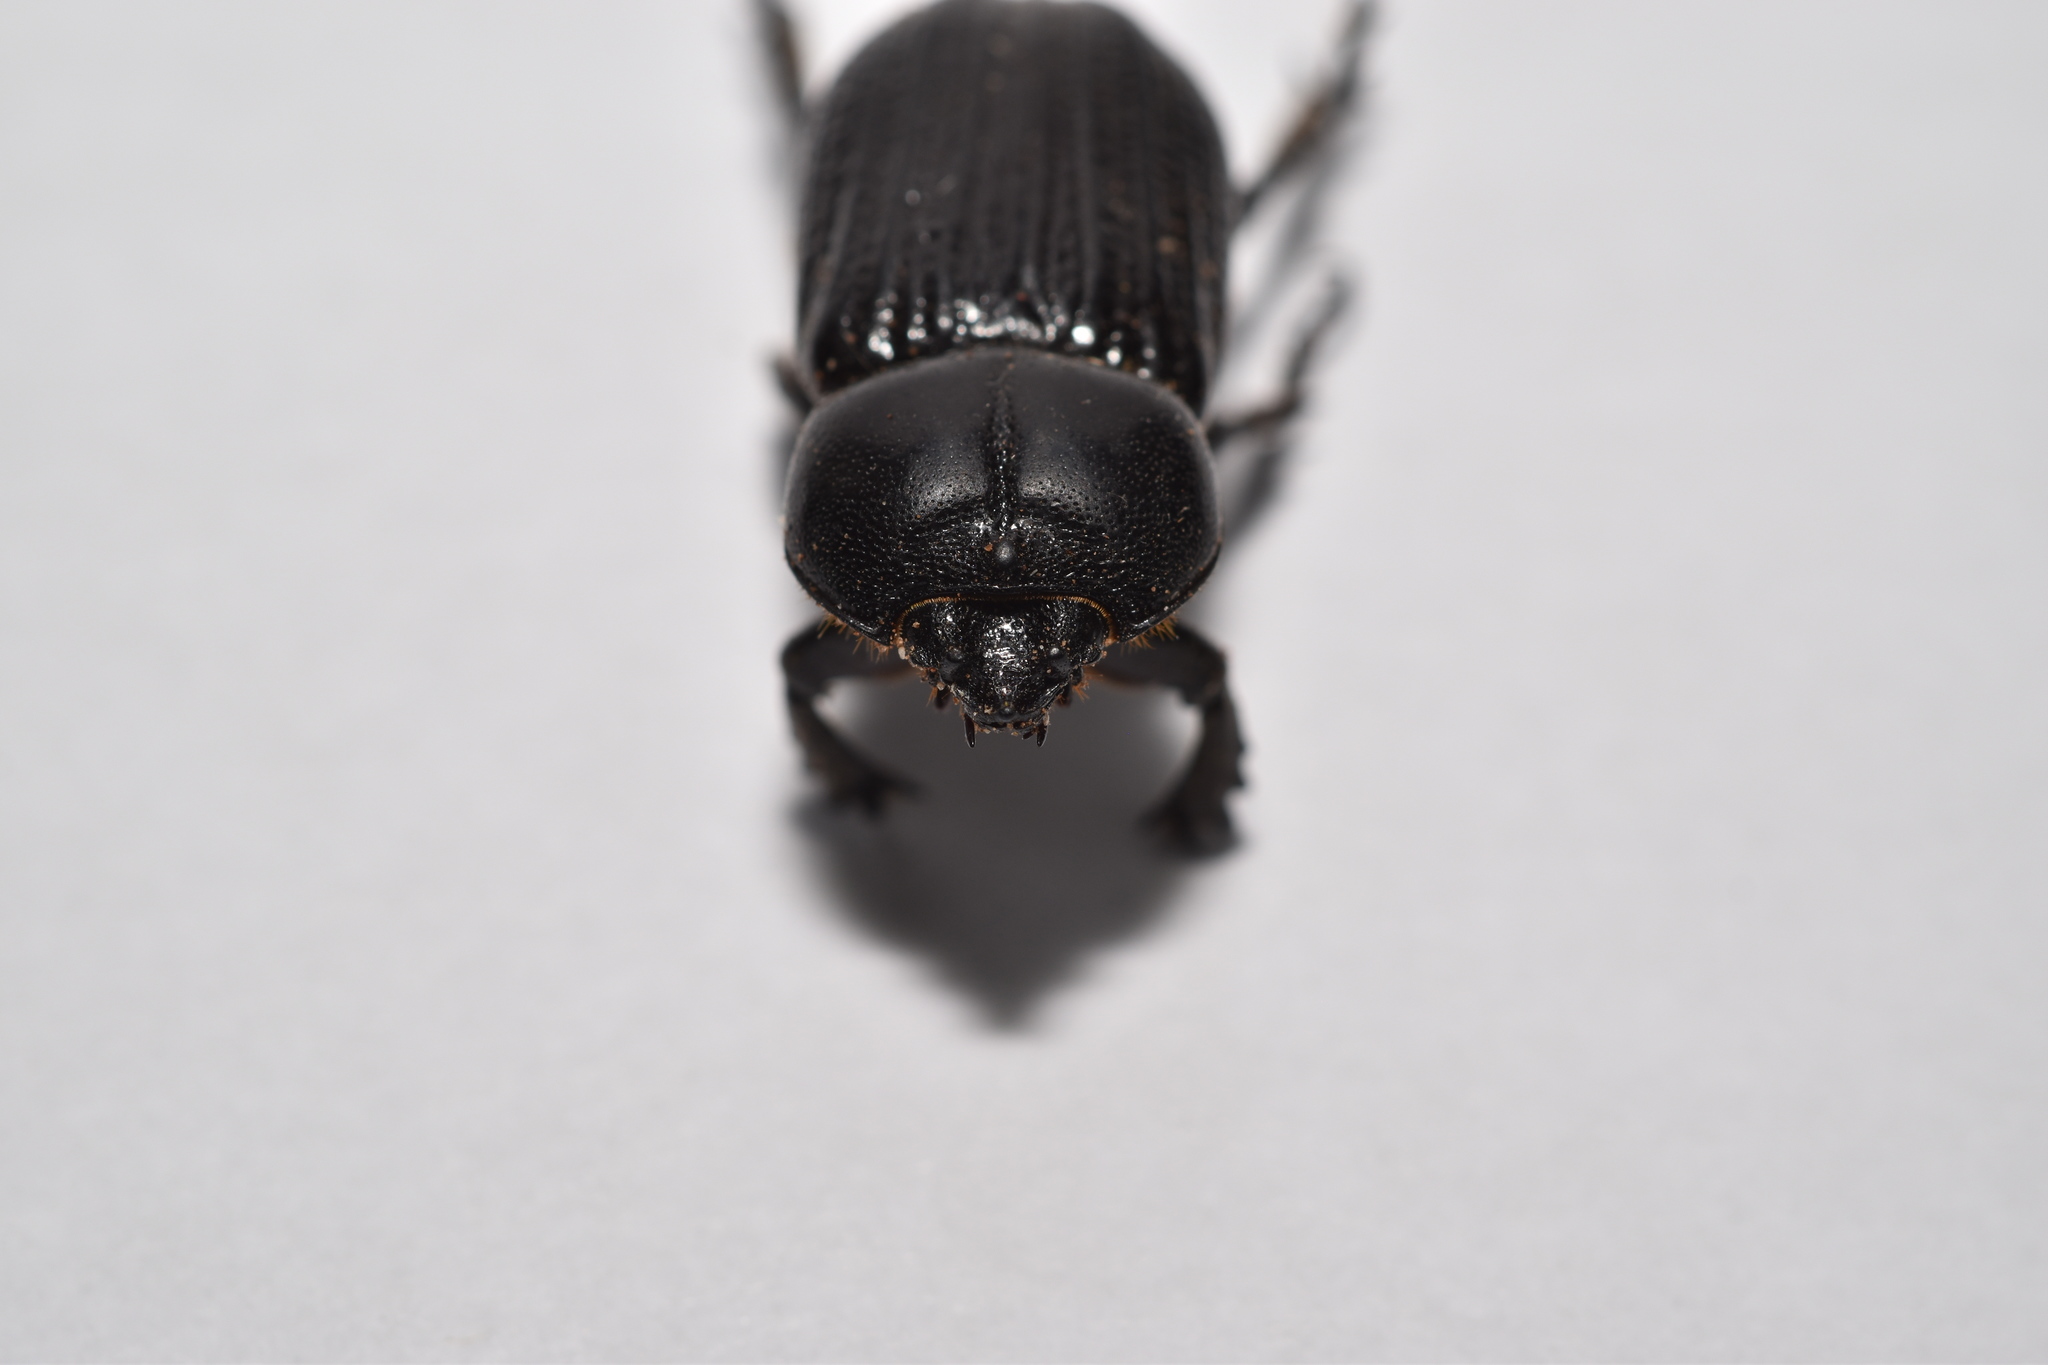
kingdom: Animalia
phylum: Arthropoda
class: Insecta
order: Coleoptera
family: Scarabaeidae
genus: Phileurus
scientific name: Phileurus valgus
